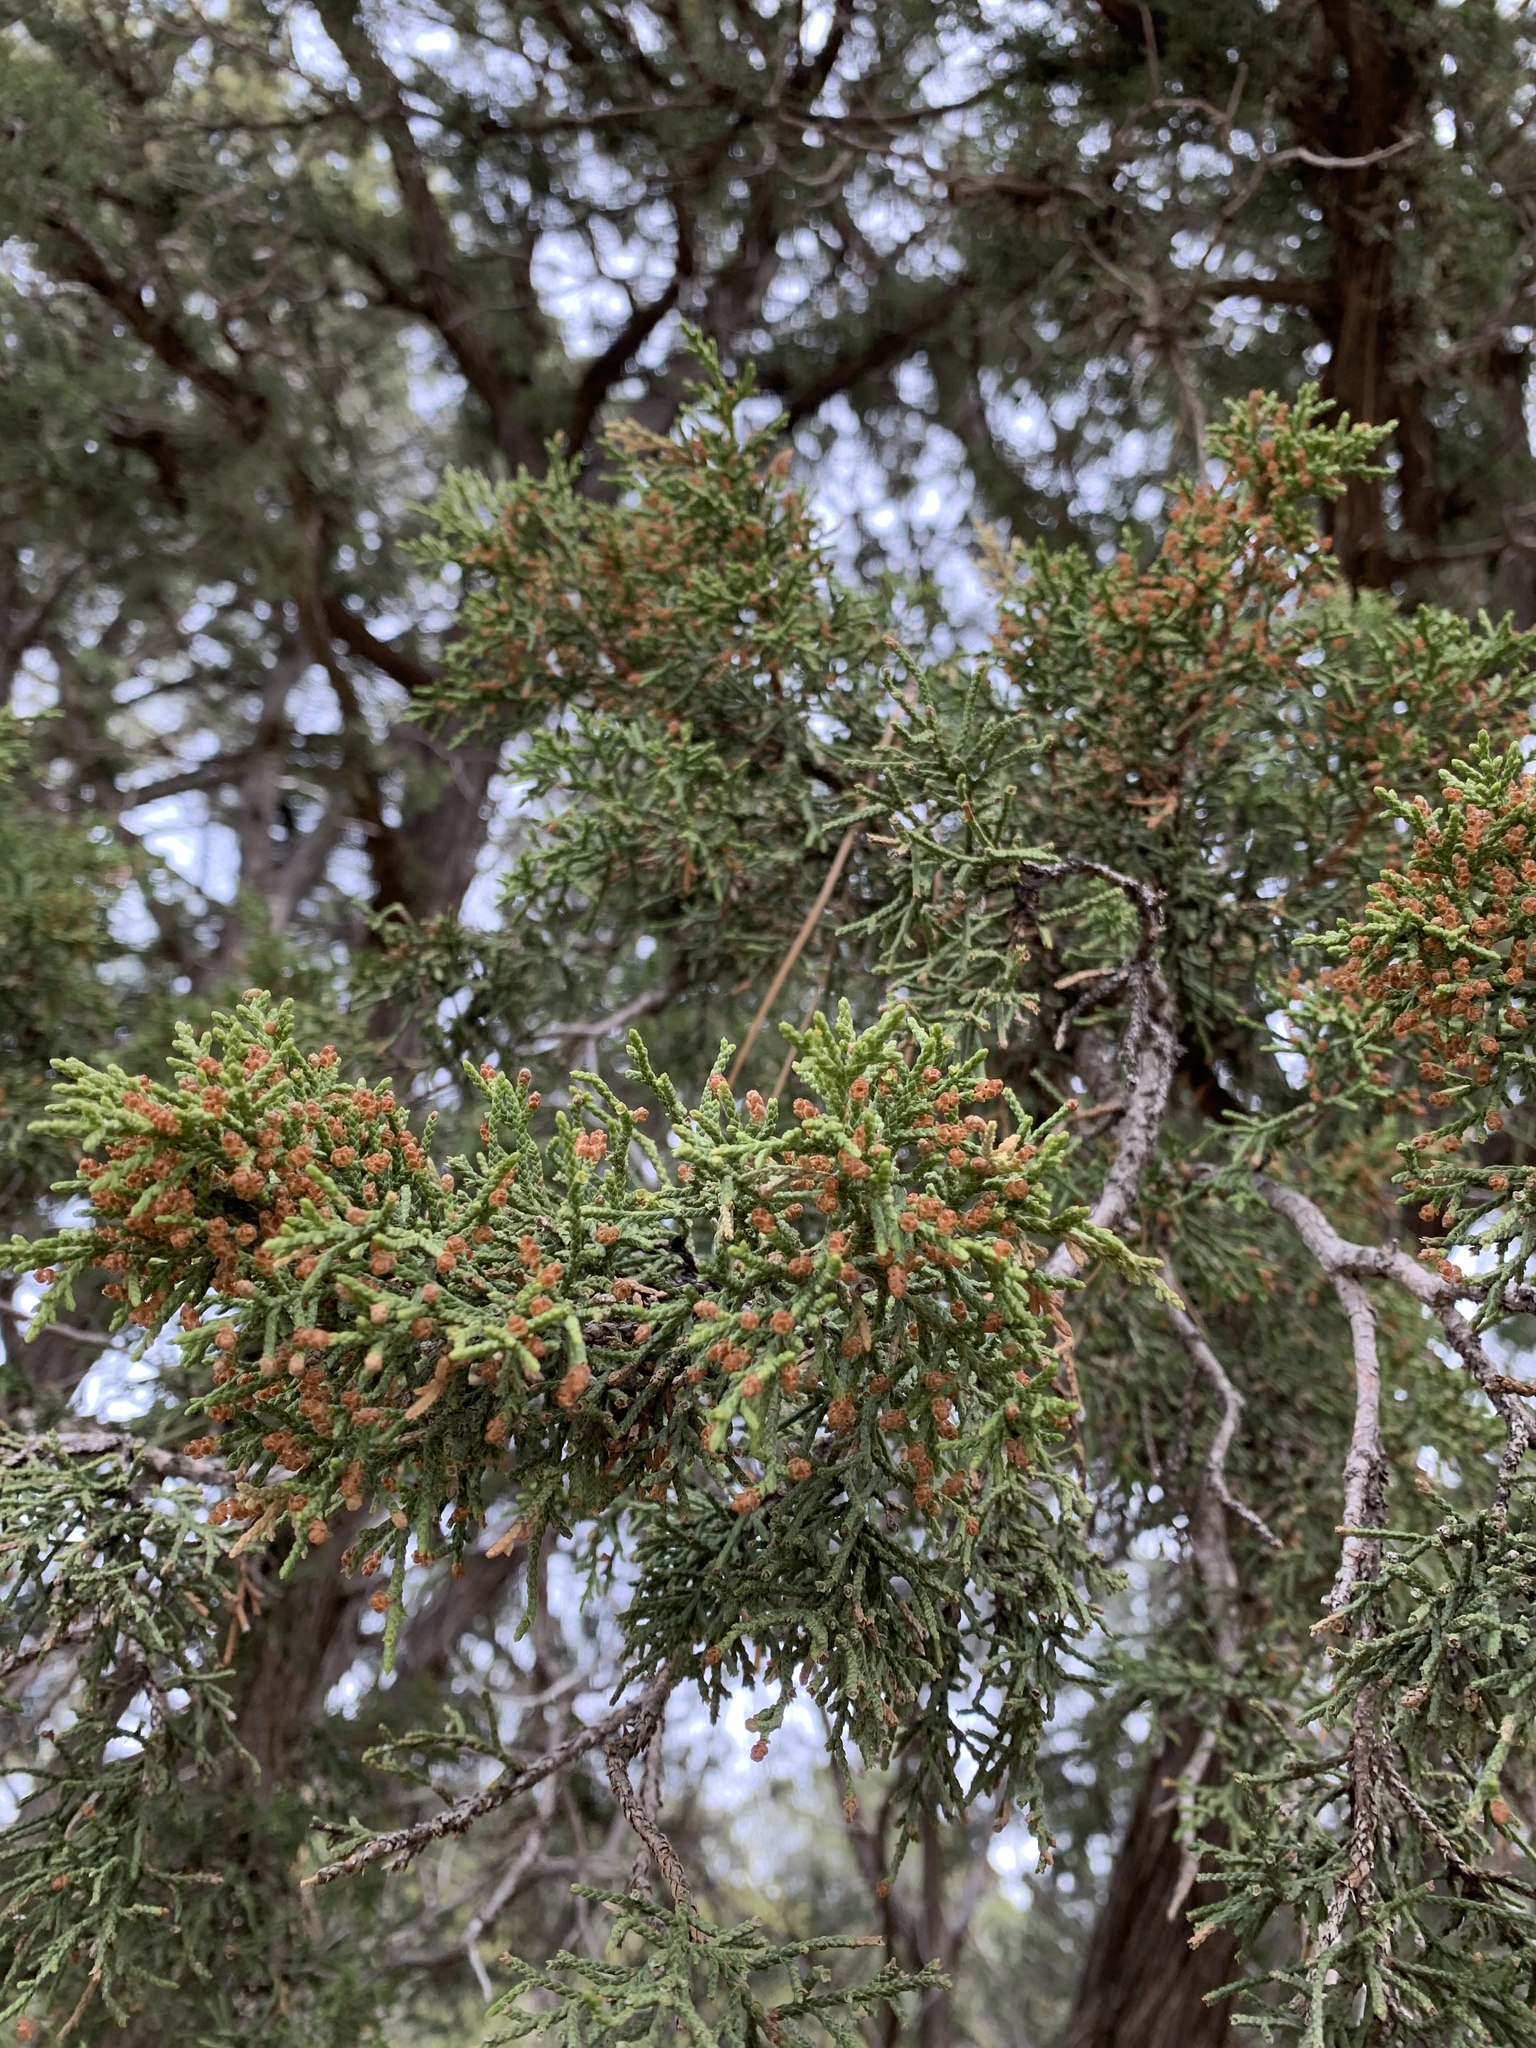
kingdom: Plantae
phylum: Tracheophyta
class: Pinopsida
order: Pinales
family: Cupressaceae
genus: Juniperus
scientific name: Juniperus monosperma
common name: One-seed juniper
